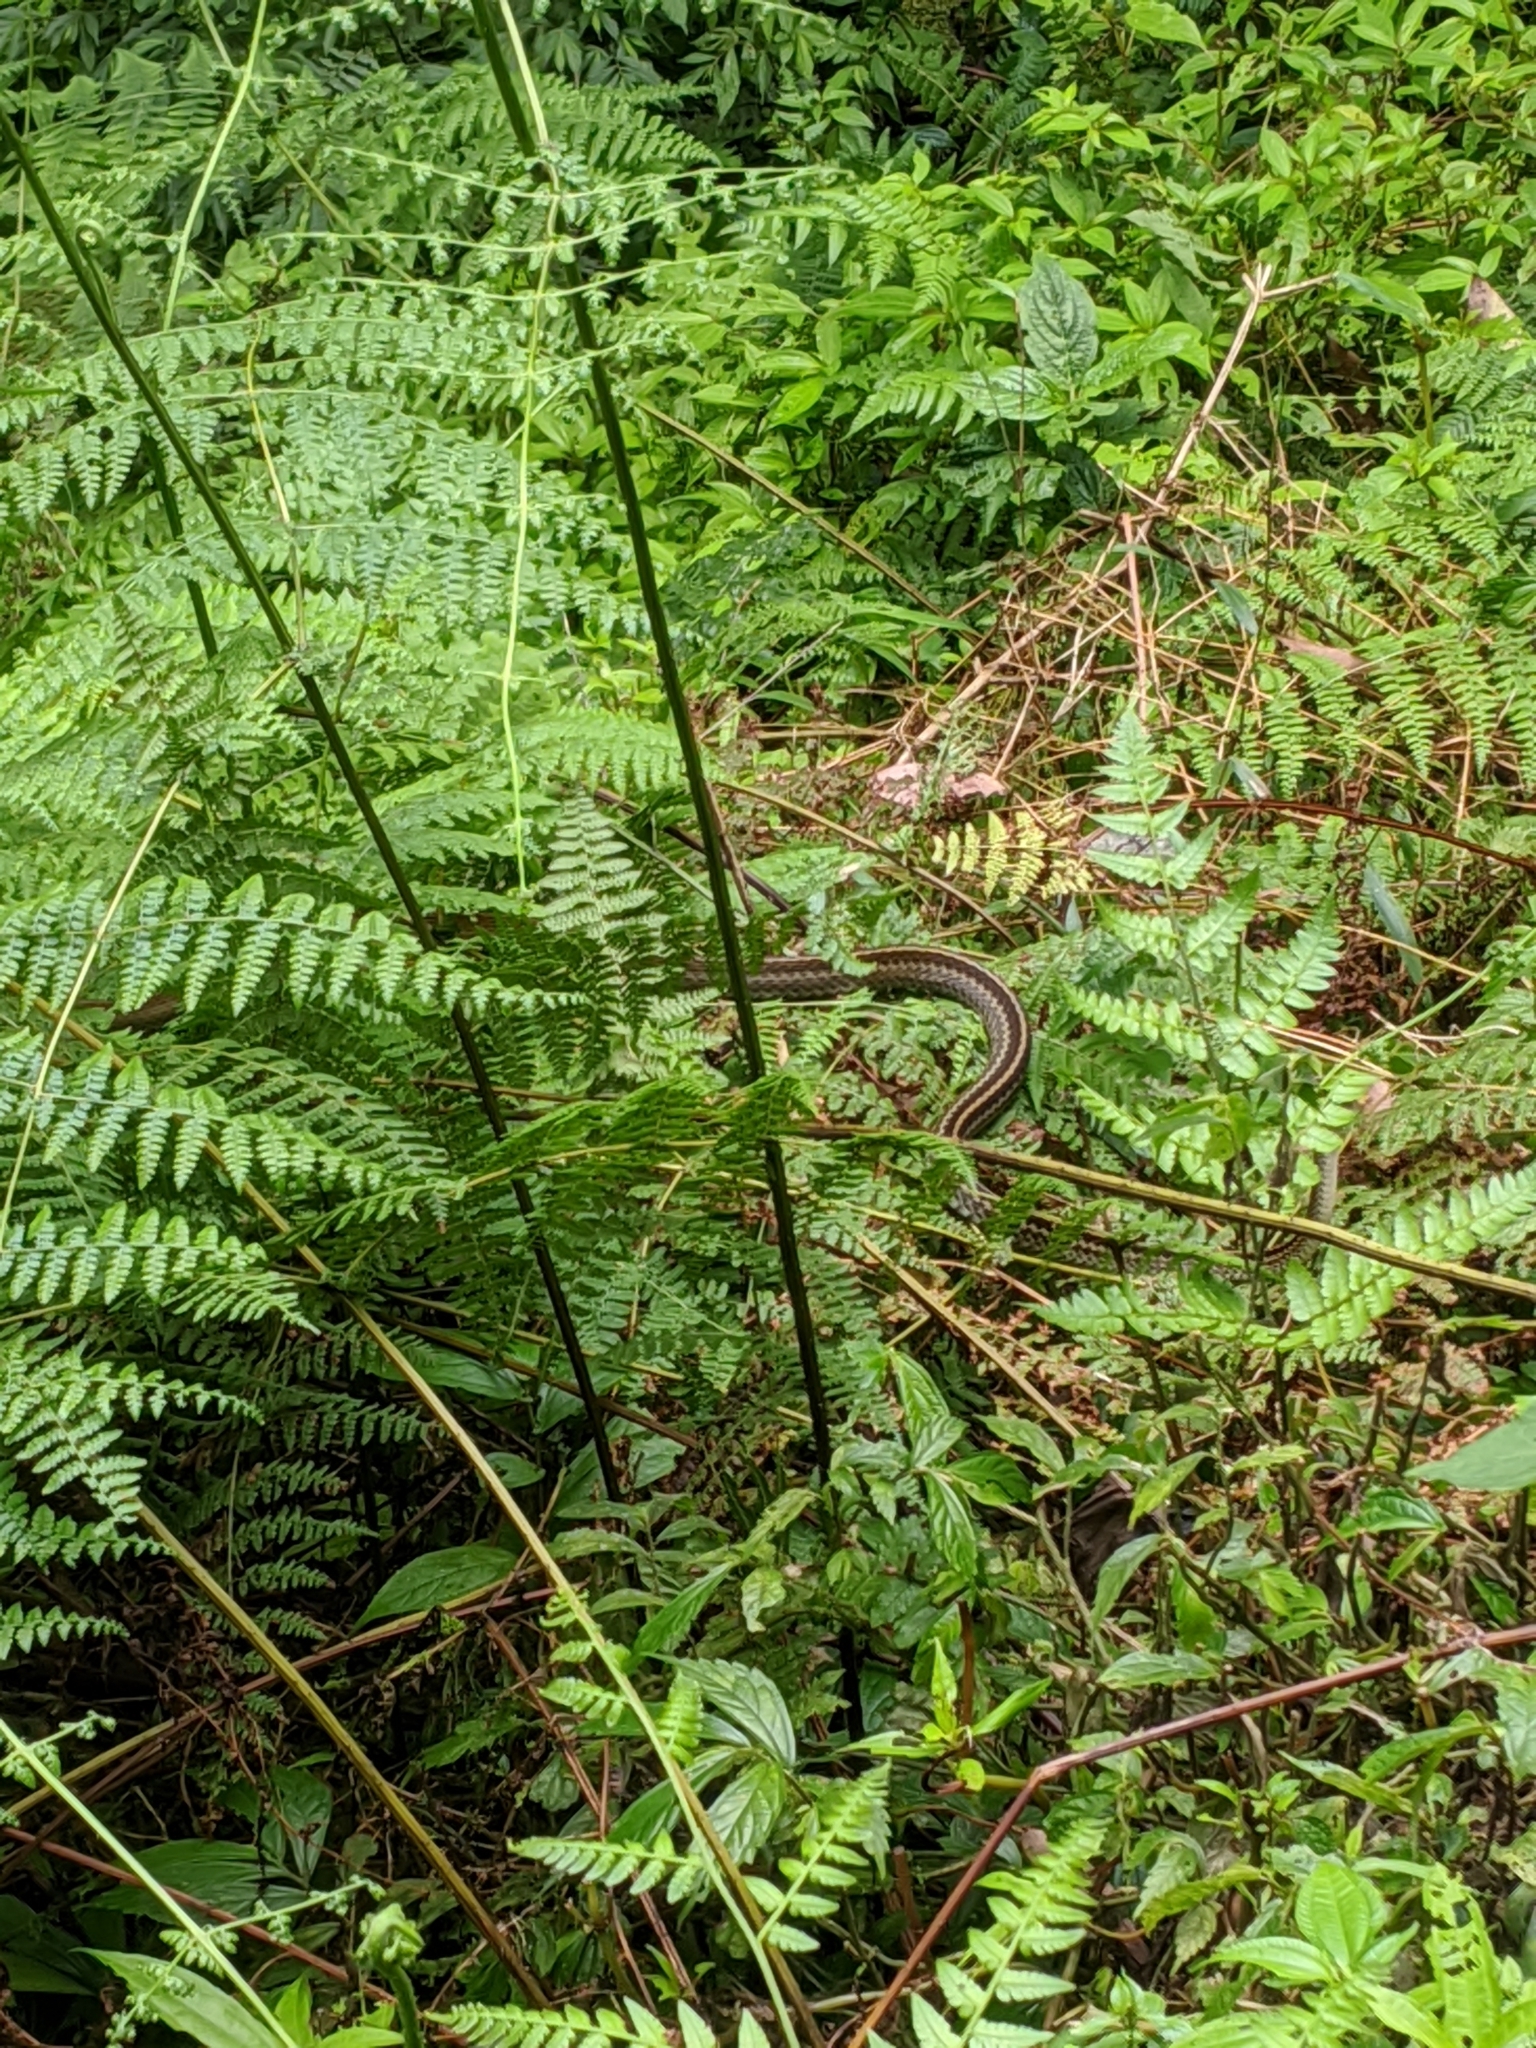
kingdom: Animalia
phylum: Chordata
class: Squamata
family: Colubridae
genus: Ptyas
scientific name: Ptyas dhumnades
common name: Black-striped rat snake
